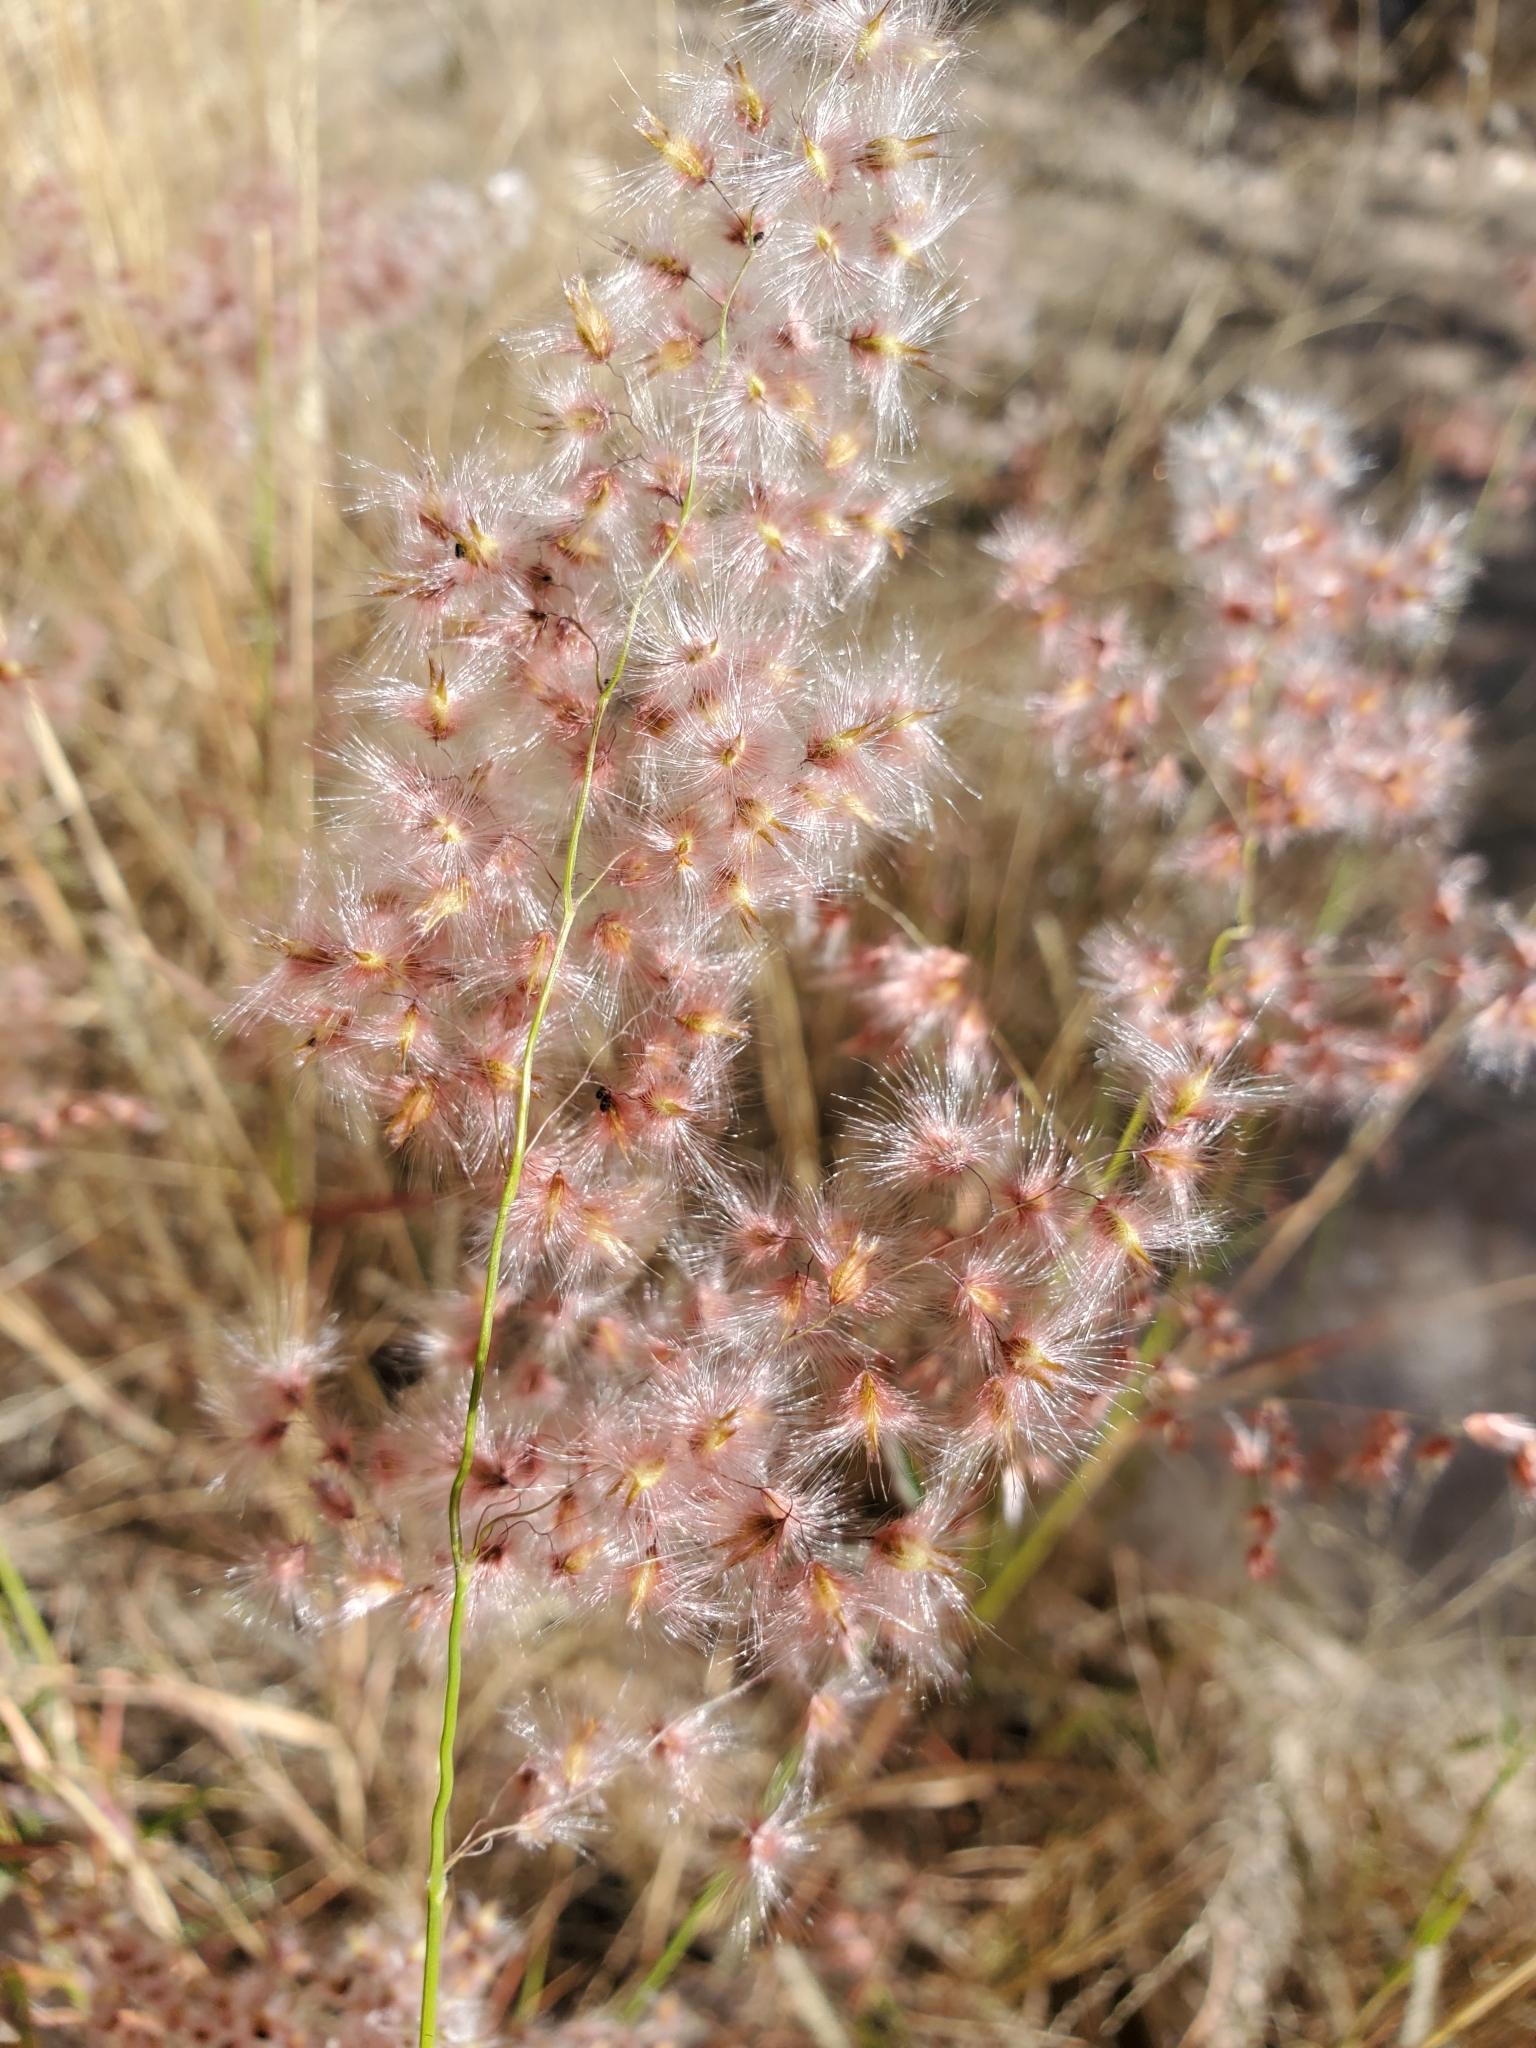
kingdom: Plantae
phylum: Tracheophyta
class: Liliopsida
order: Poales
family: Poaceae
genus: Melinis
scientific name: Melinis repens
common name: Rose natal grass
